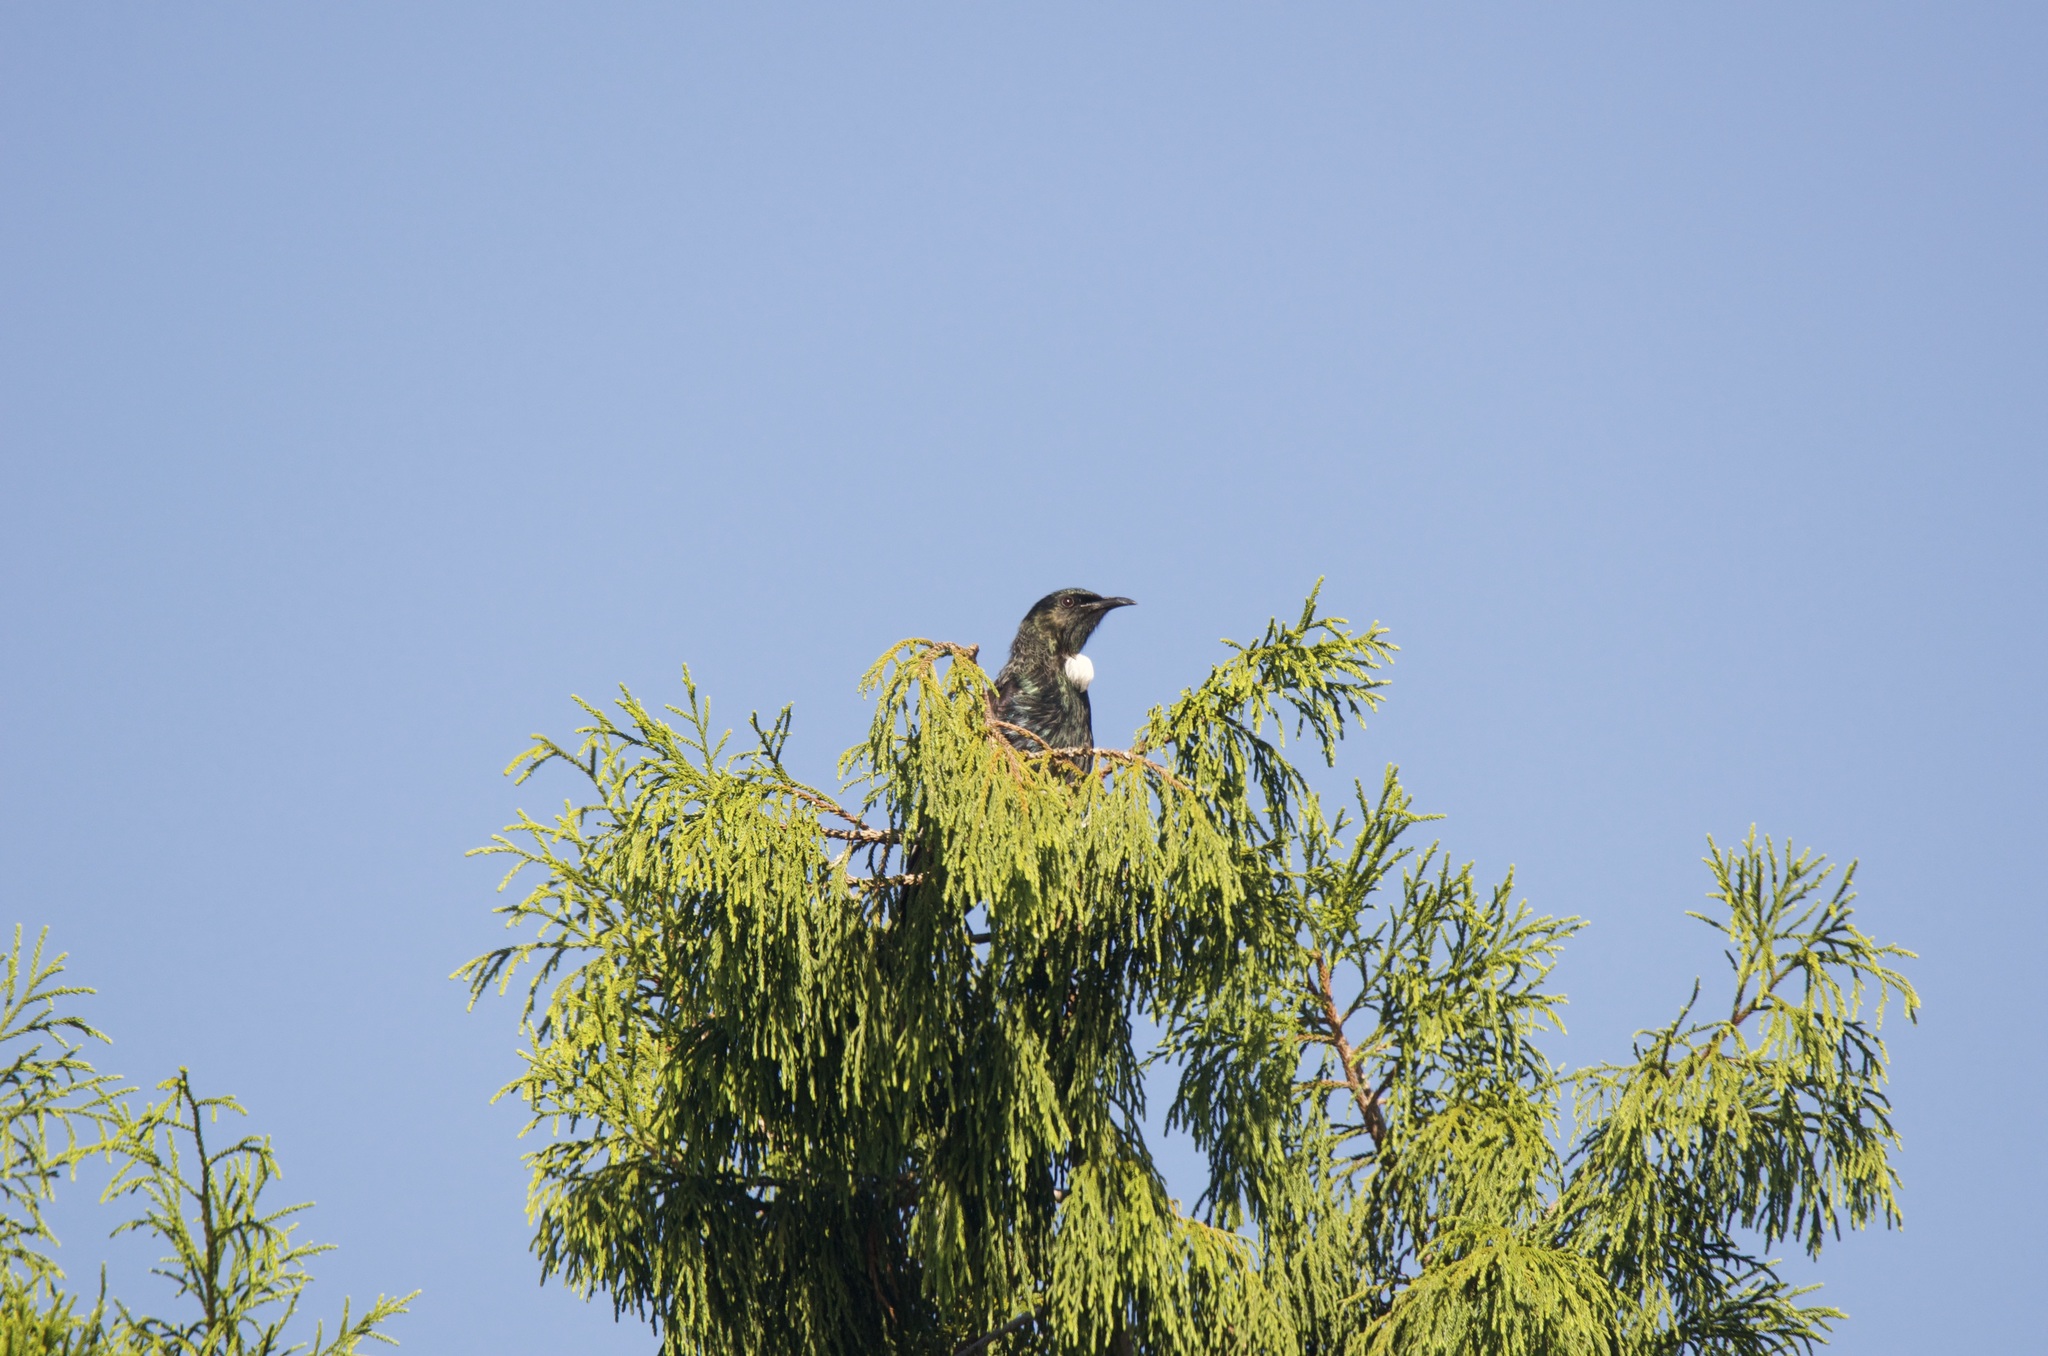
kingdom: Animalia
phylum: Chordata
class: Aves
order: Passeriformes
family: Meliphagidae
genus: Prosthemadera
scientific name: Prosthemadera novaeseelandiae
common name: Tui
